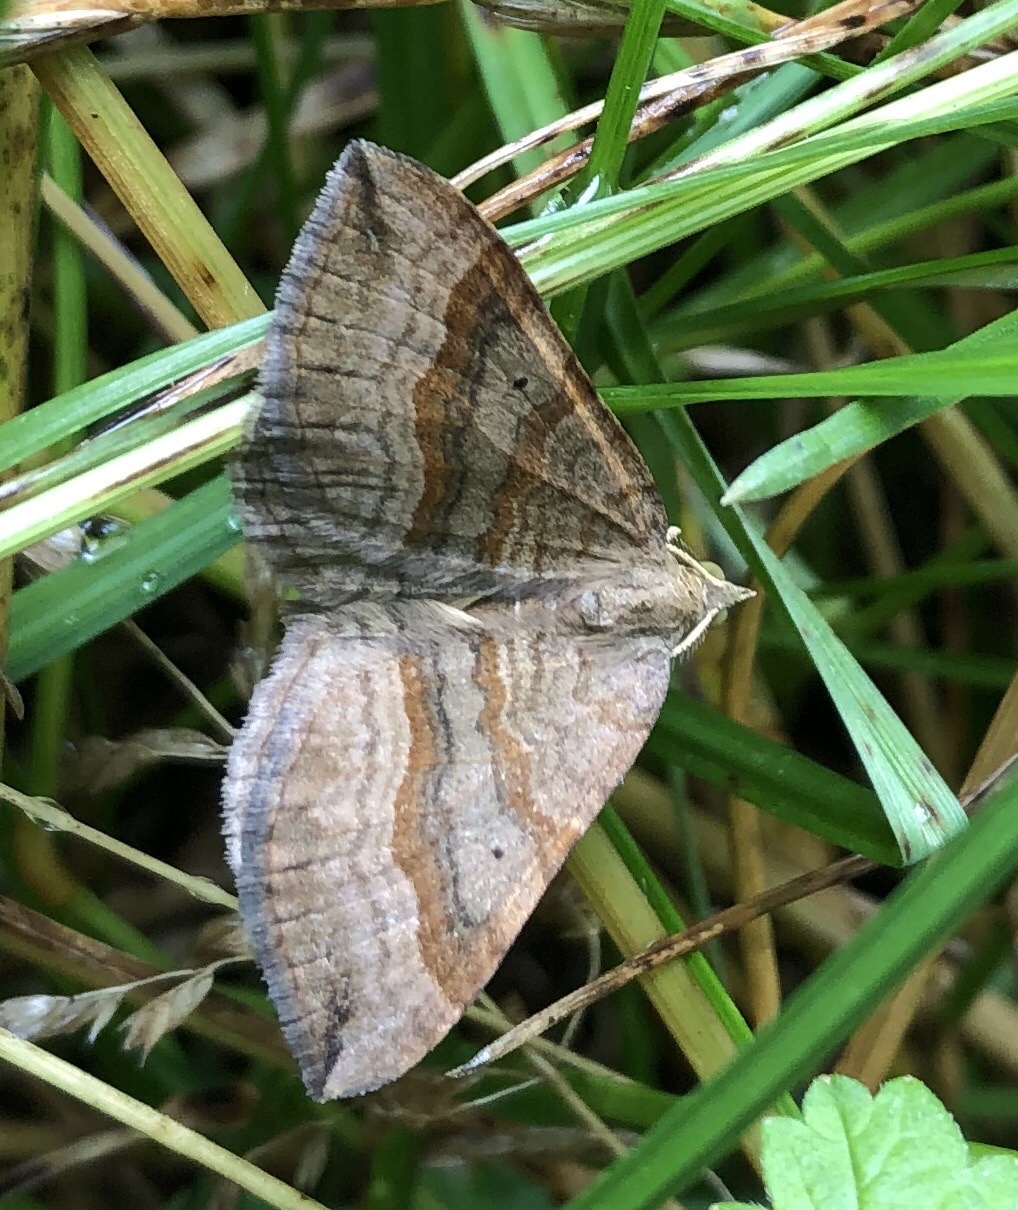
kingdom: Animalia
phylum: Arthropoda
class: Insecta
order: Lepidoptera
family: Geometridae
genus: Scotopteryx
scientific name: Scotopteryx chenopodiata
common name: Shaded broad-bar
